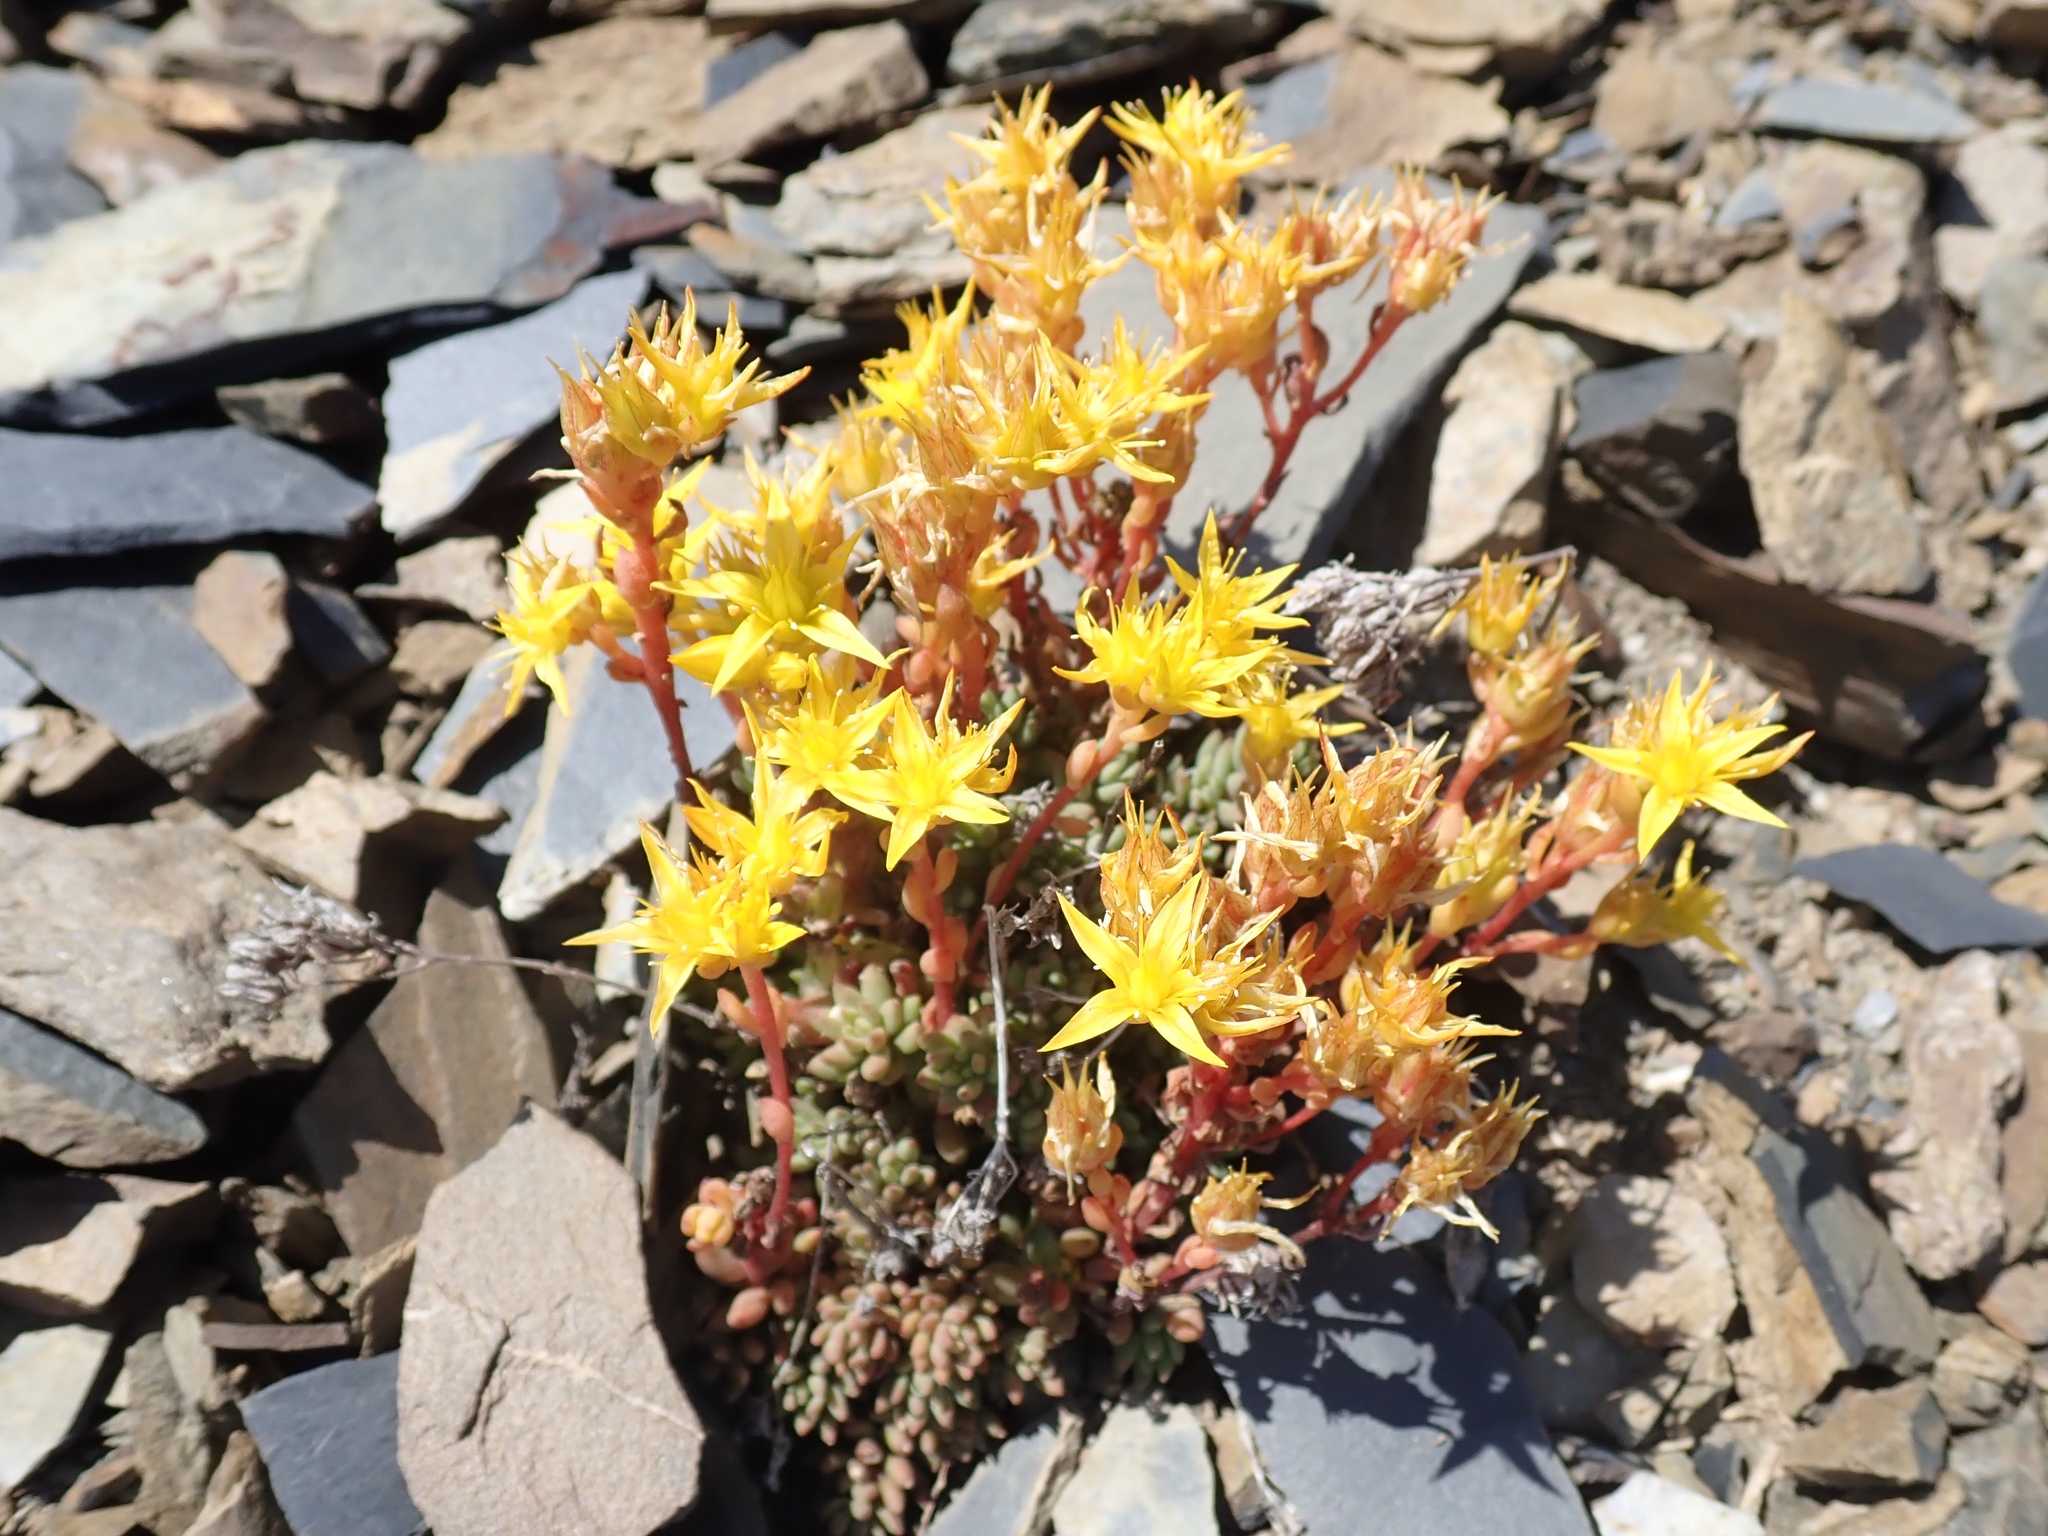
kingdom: Plantae
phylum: Tracheophyta
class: Magnoliopsida
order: Saxifragales
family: Crassulaceae
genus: Sedum
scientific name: Sedum lanceolatum
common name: Common stonecrop
